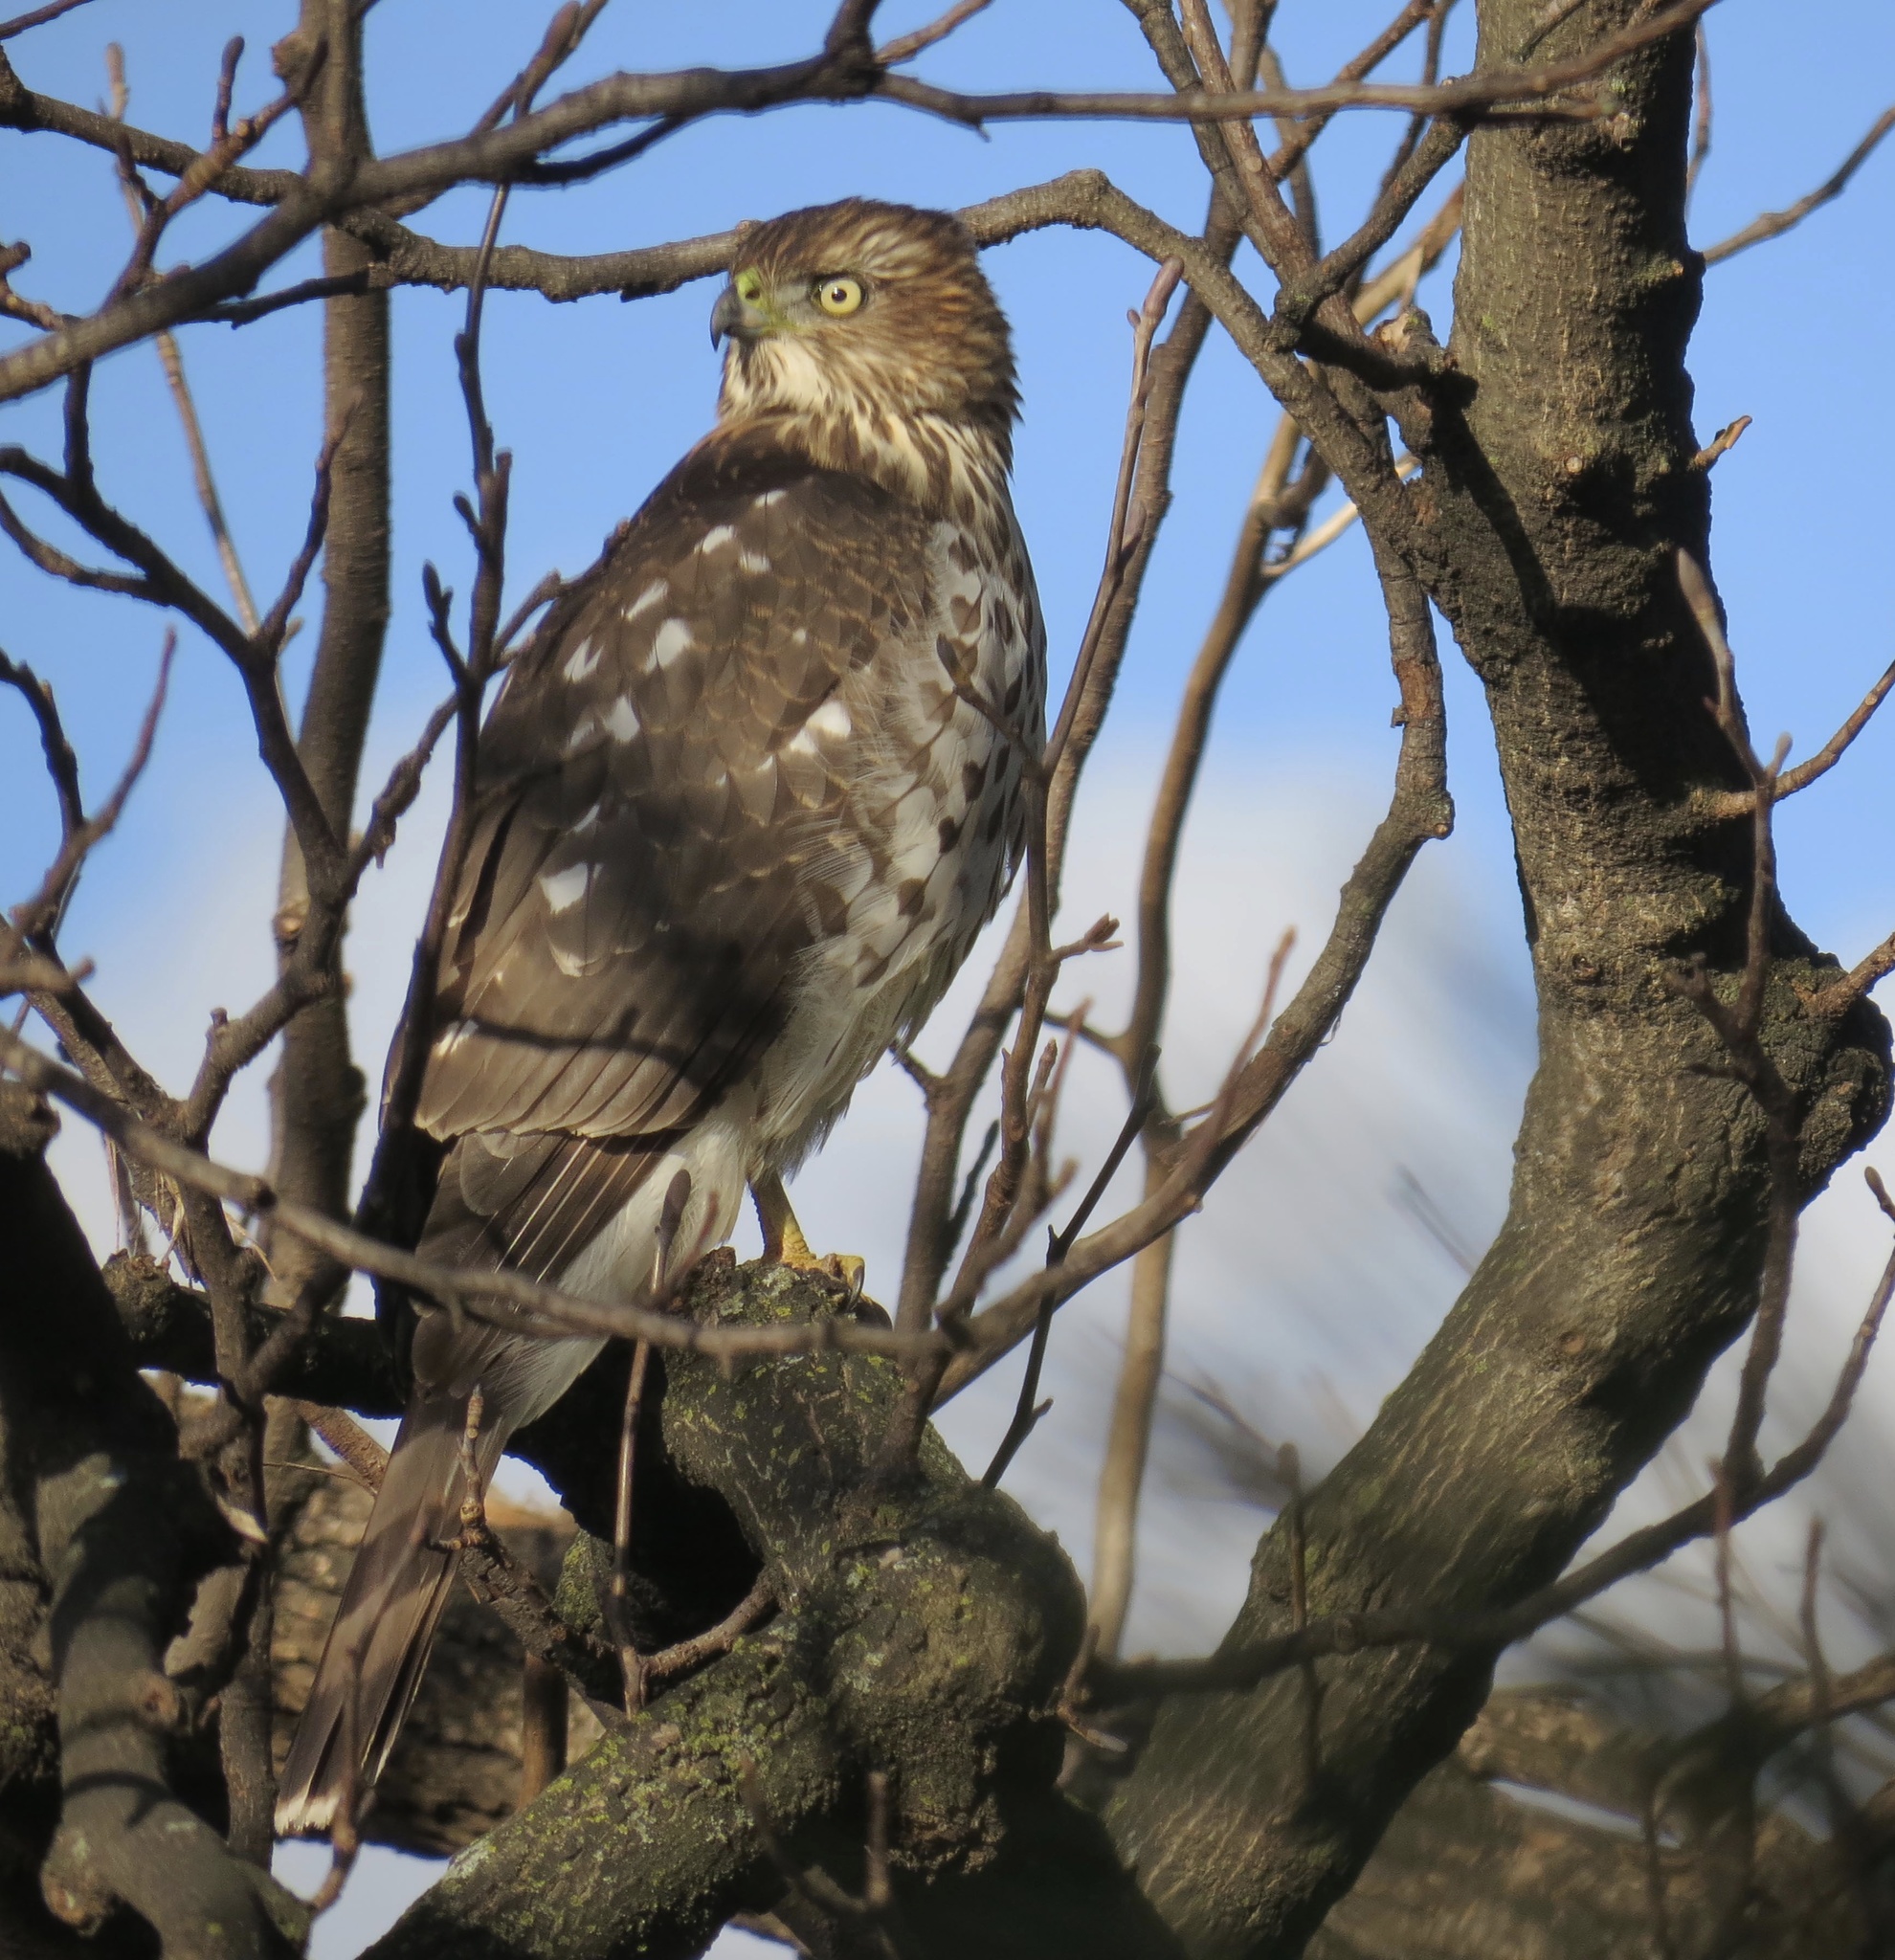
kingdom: Animalia
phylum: Chordata
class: Aves
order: Accipitriformes
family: Accipitridae
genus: Accipiter
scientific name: Accipiter cooperii
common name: Cooper's hawk
